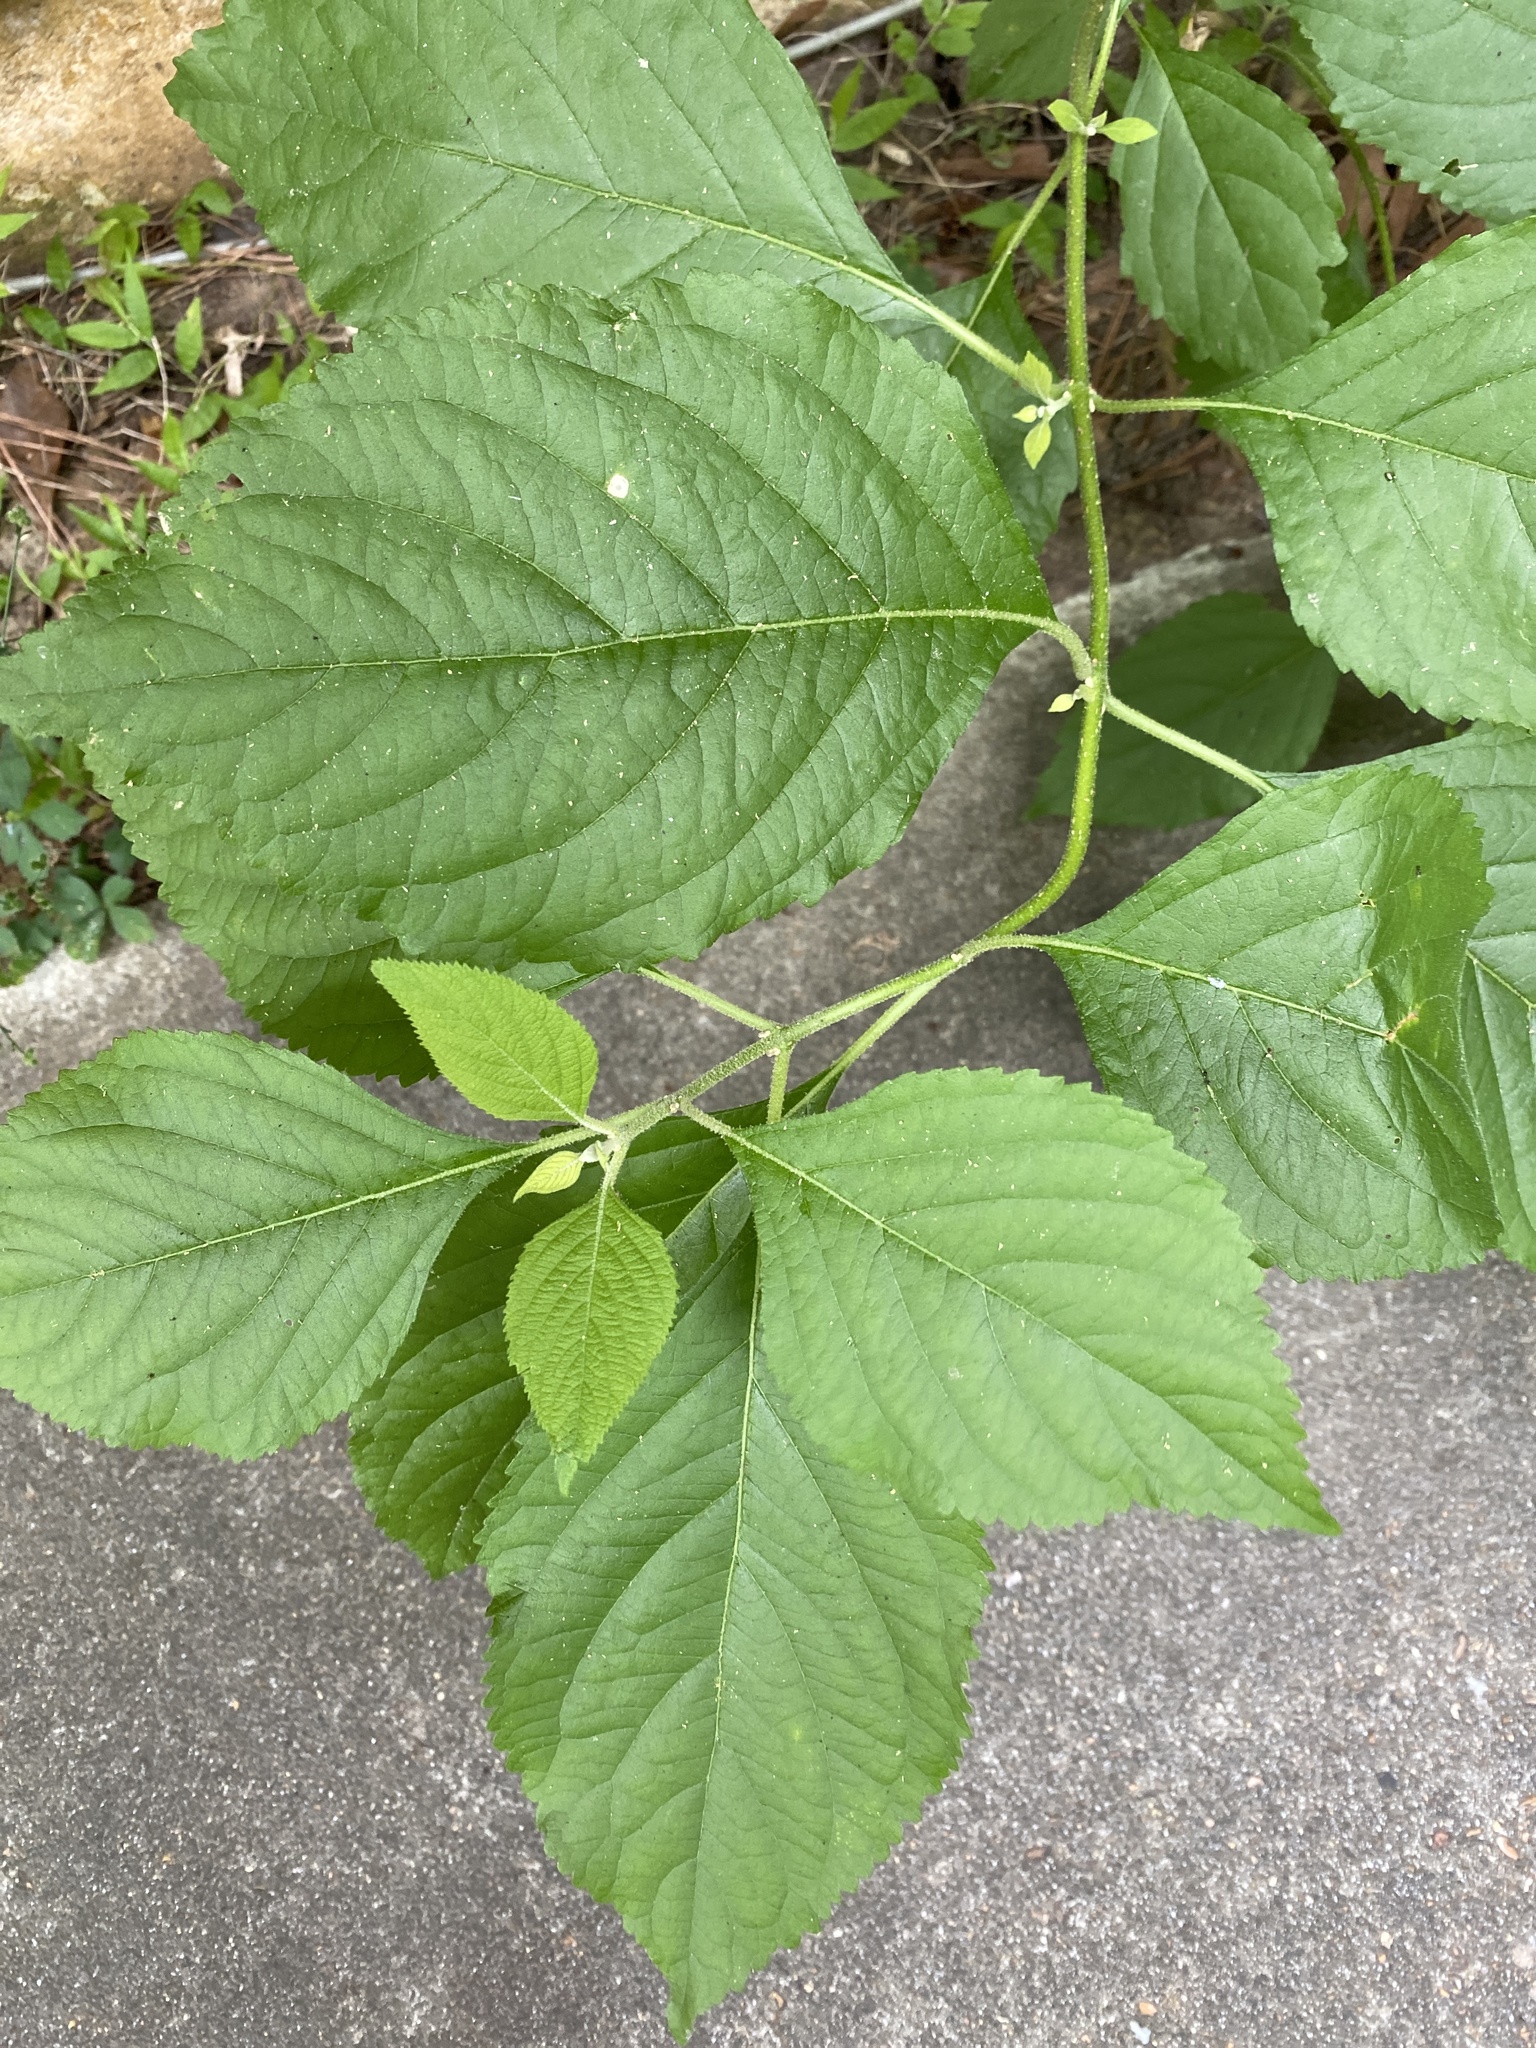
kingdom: Plantae
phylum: Tracheophyta
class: Magnoliopsida
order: Lamiales
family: Lamiaceae
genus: Callicarpa
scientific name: Callicarpa americana
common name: American beautyberry
